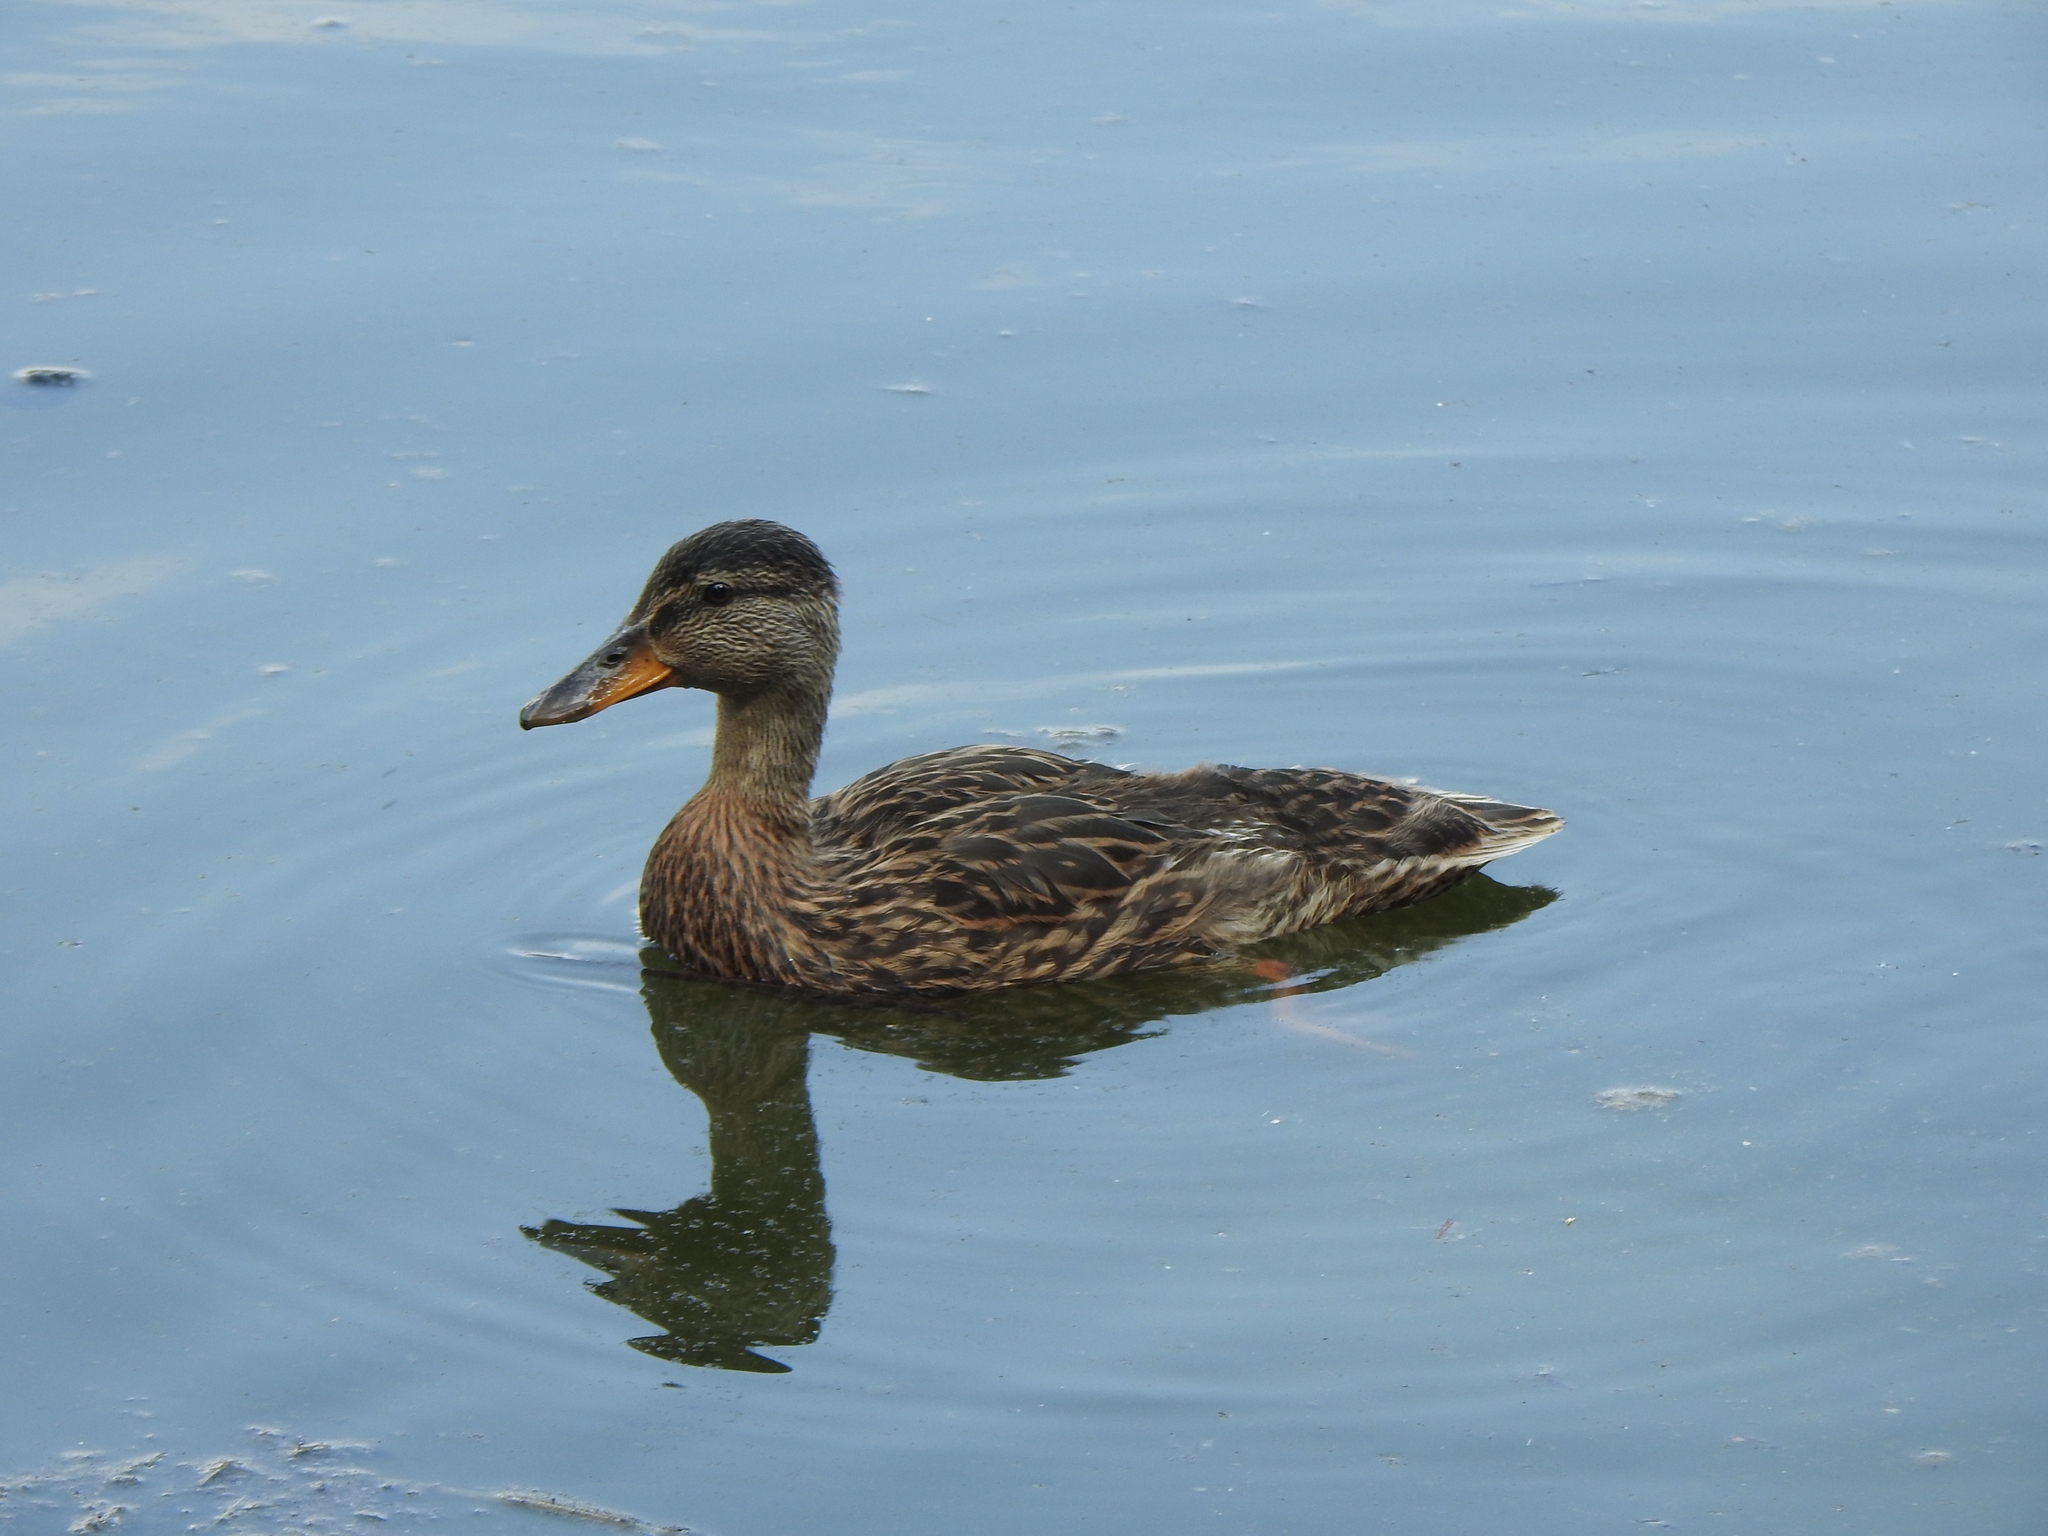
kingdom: Animalia
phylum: Chordata
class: Aves
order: Anseriformes
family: Anatidae
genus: Anas
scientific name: Anas platyrhynchos
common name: Mallard
